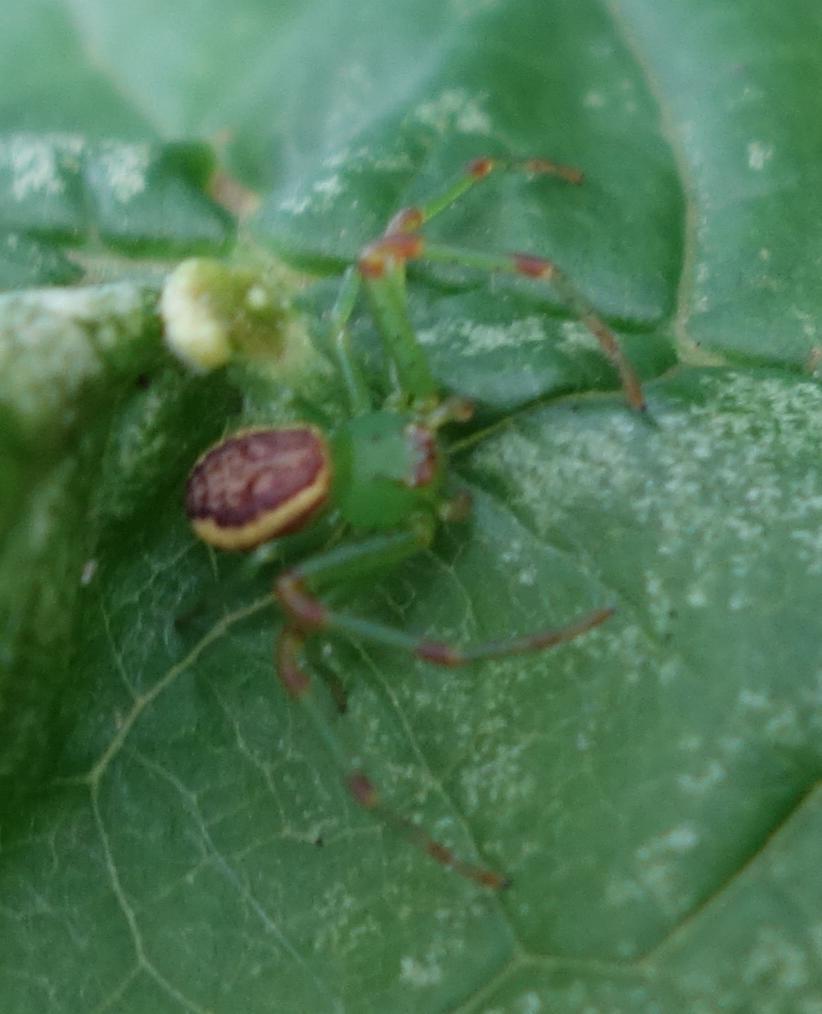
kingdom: Animalia
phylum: Arthropoda
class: Arachnida
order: Araneae
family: Thomisidae
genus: Diaea
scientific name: Diaea dorsata
